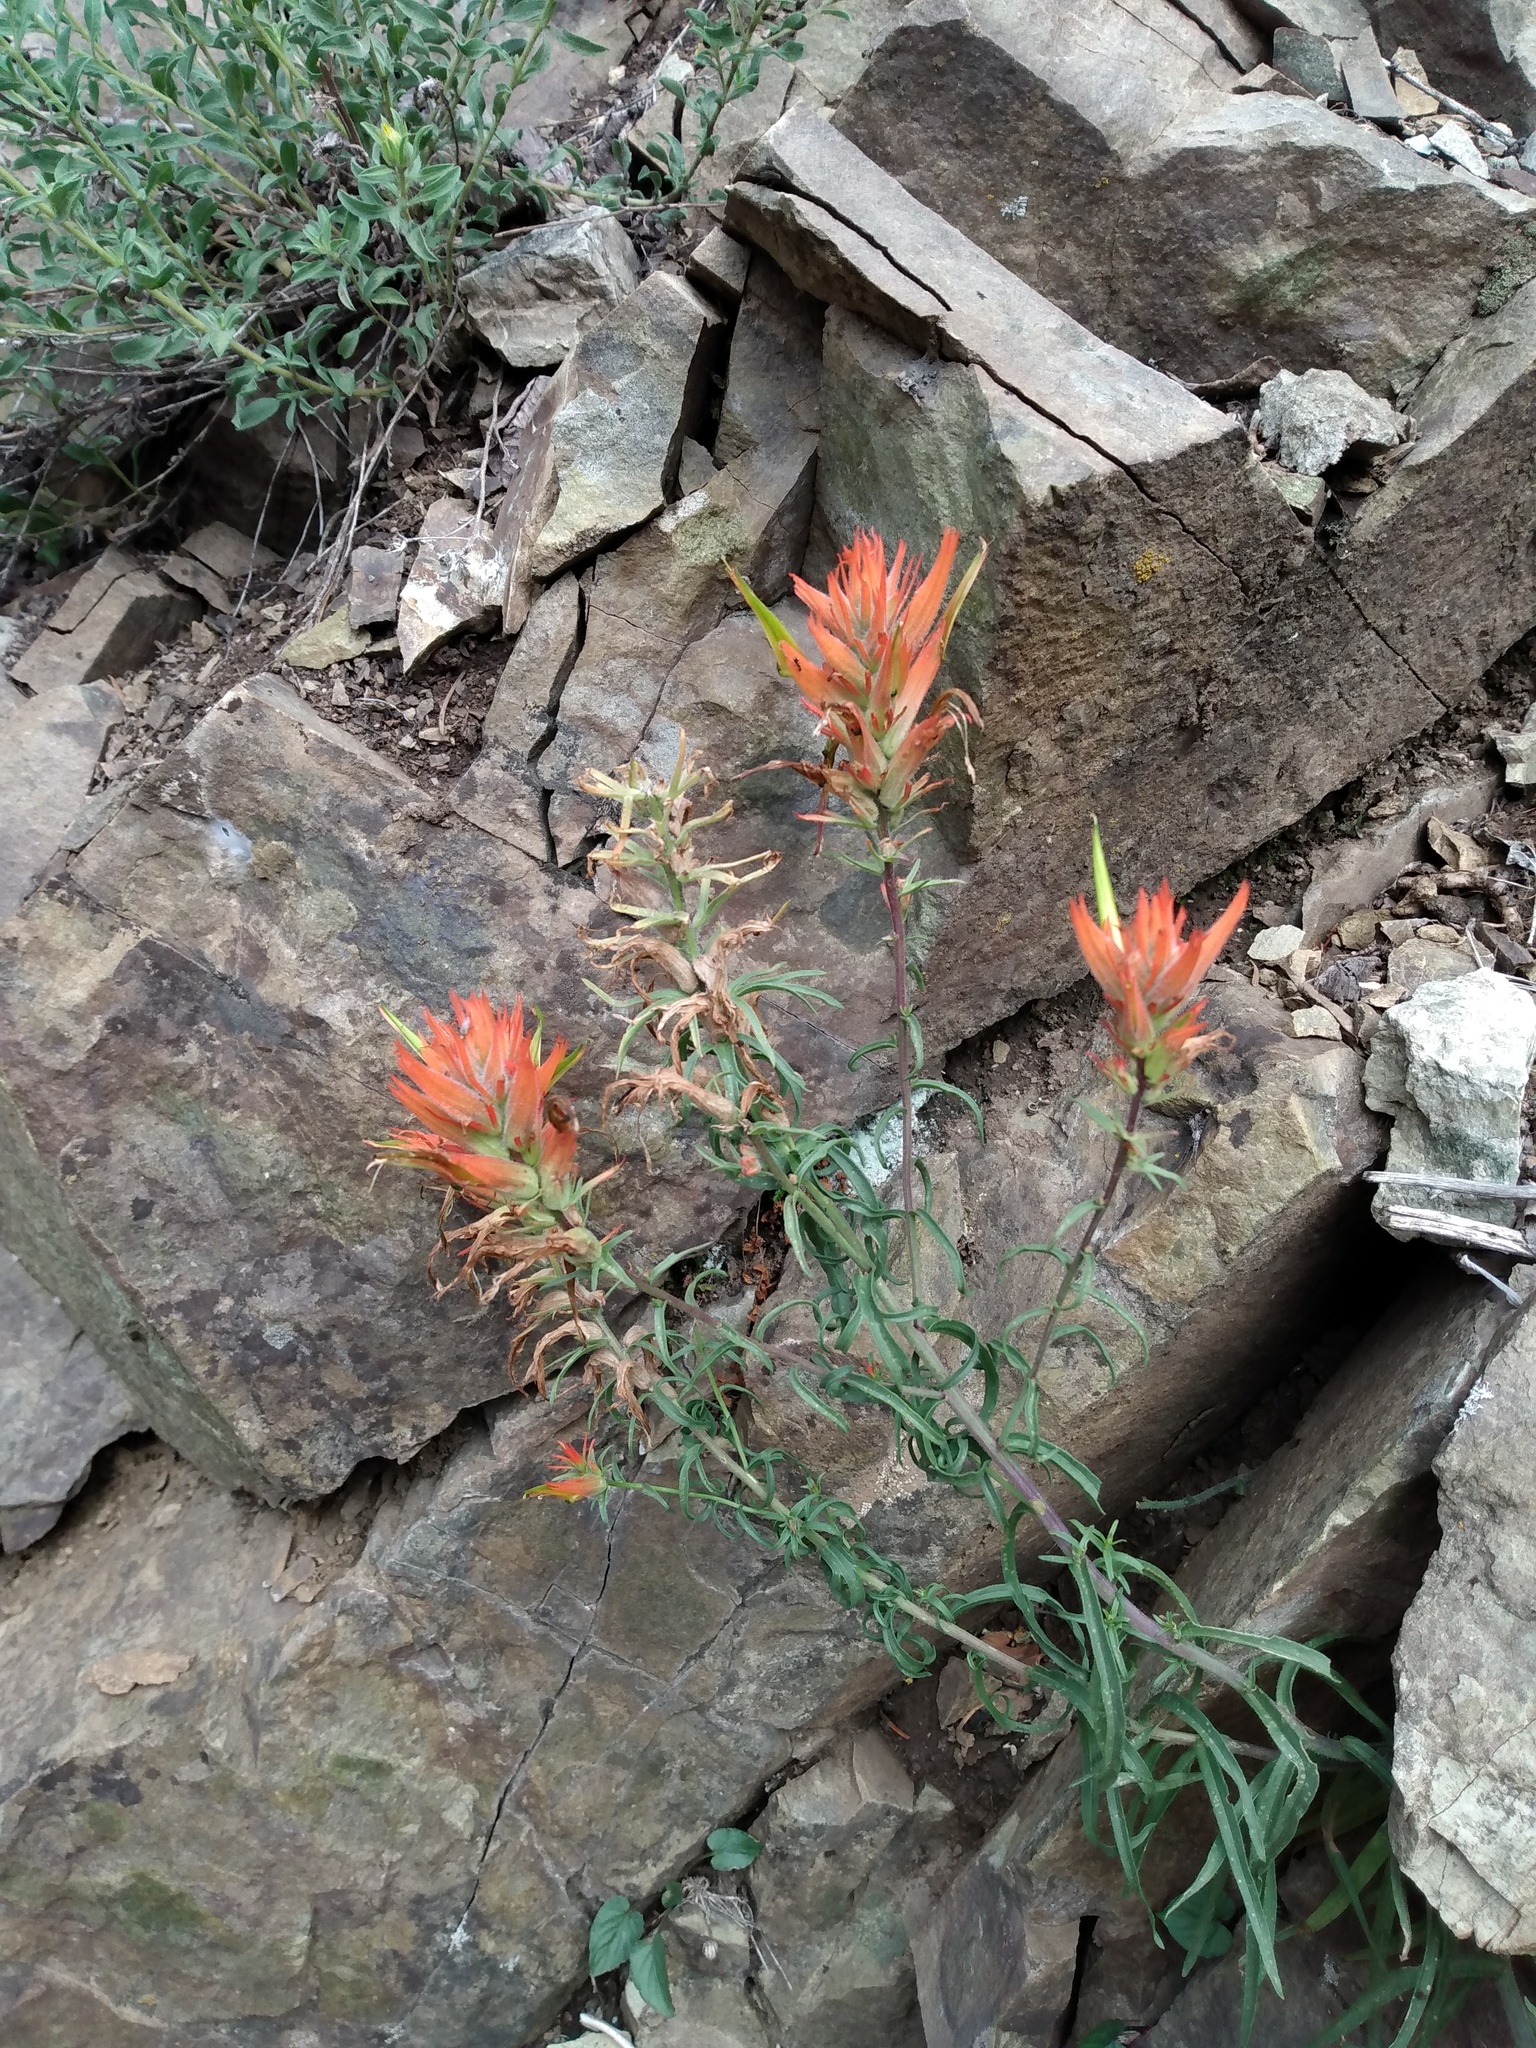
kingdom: Plantae
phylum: Tracheophyta
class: Magnoliopsida
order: Lamiales
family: Orobanchaceae
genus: Castilleja
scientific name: Castilleja linariifolia
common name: Wyoming paintbrush
